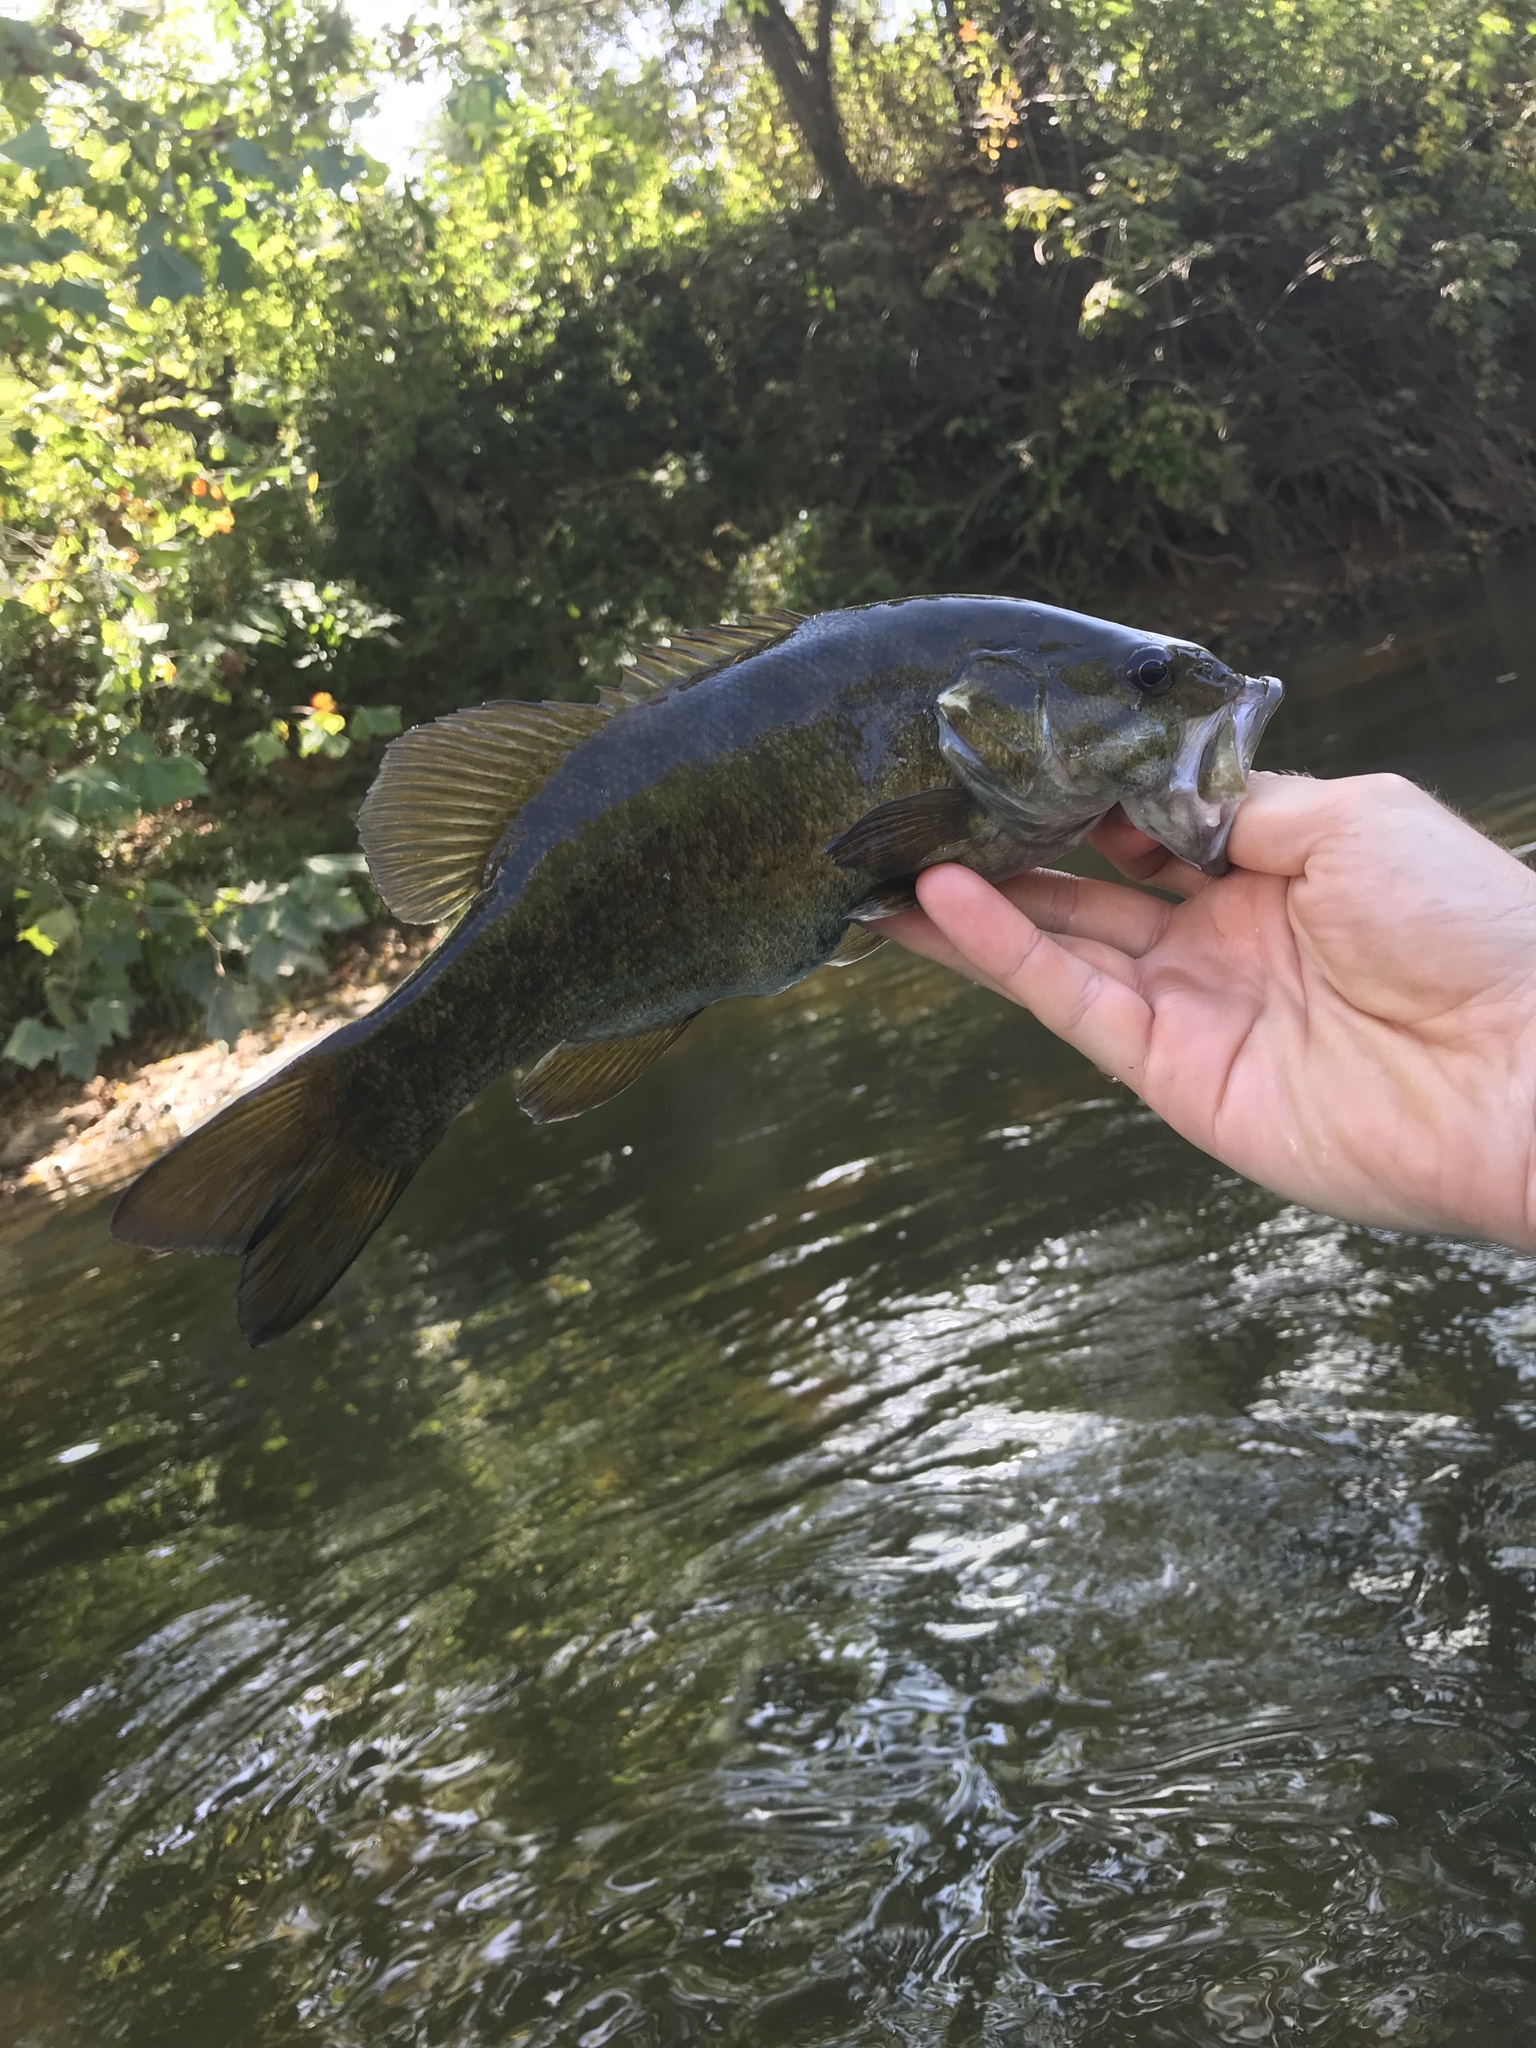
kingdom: Animalia
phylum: Chordata
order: Perciformes
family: Centrarchidae
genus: Micropterus
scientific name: Micropterus dolomieu
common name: Smallmouth bass
